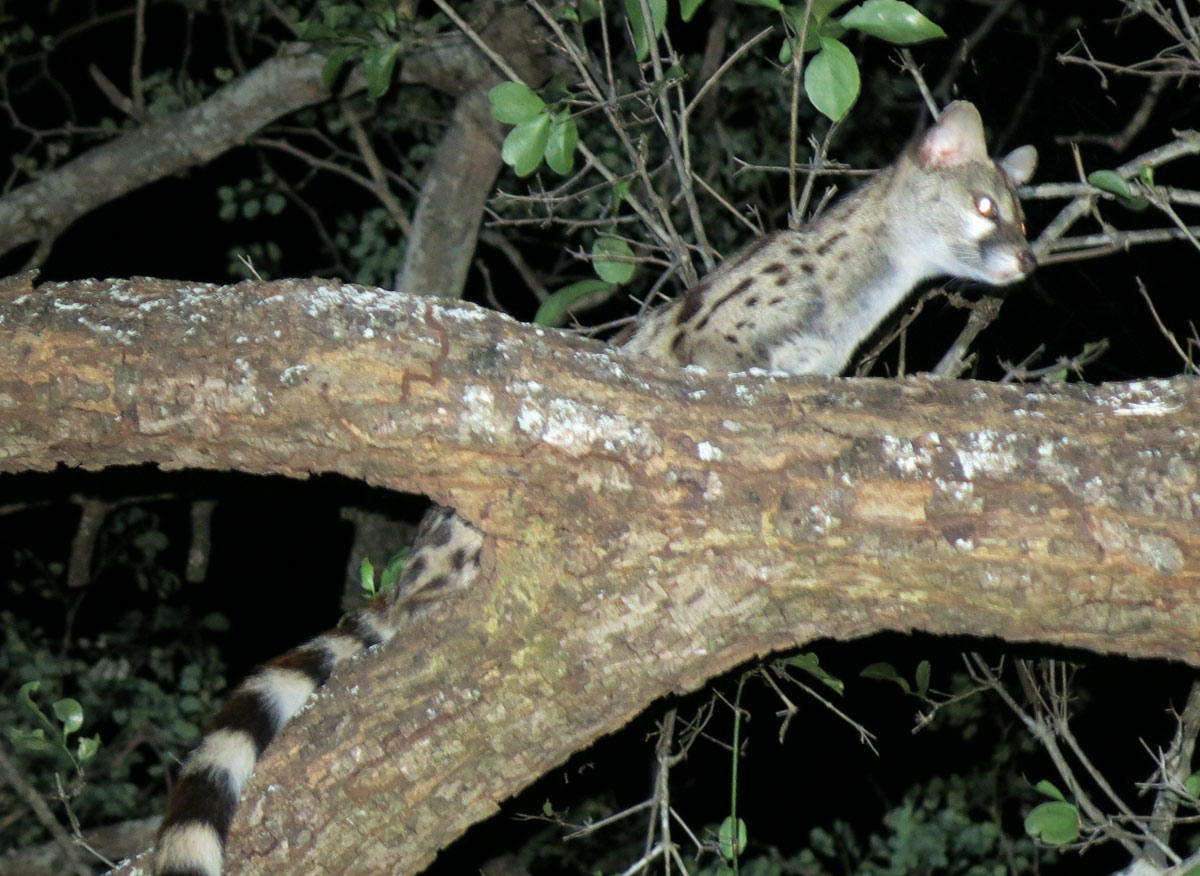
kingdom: Animalia
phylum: Chordata
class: Mammalia
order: Carnivora
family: Viverridae
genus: Genetta
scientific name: Genetta maculata
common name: Rusty-spotted genet
